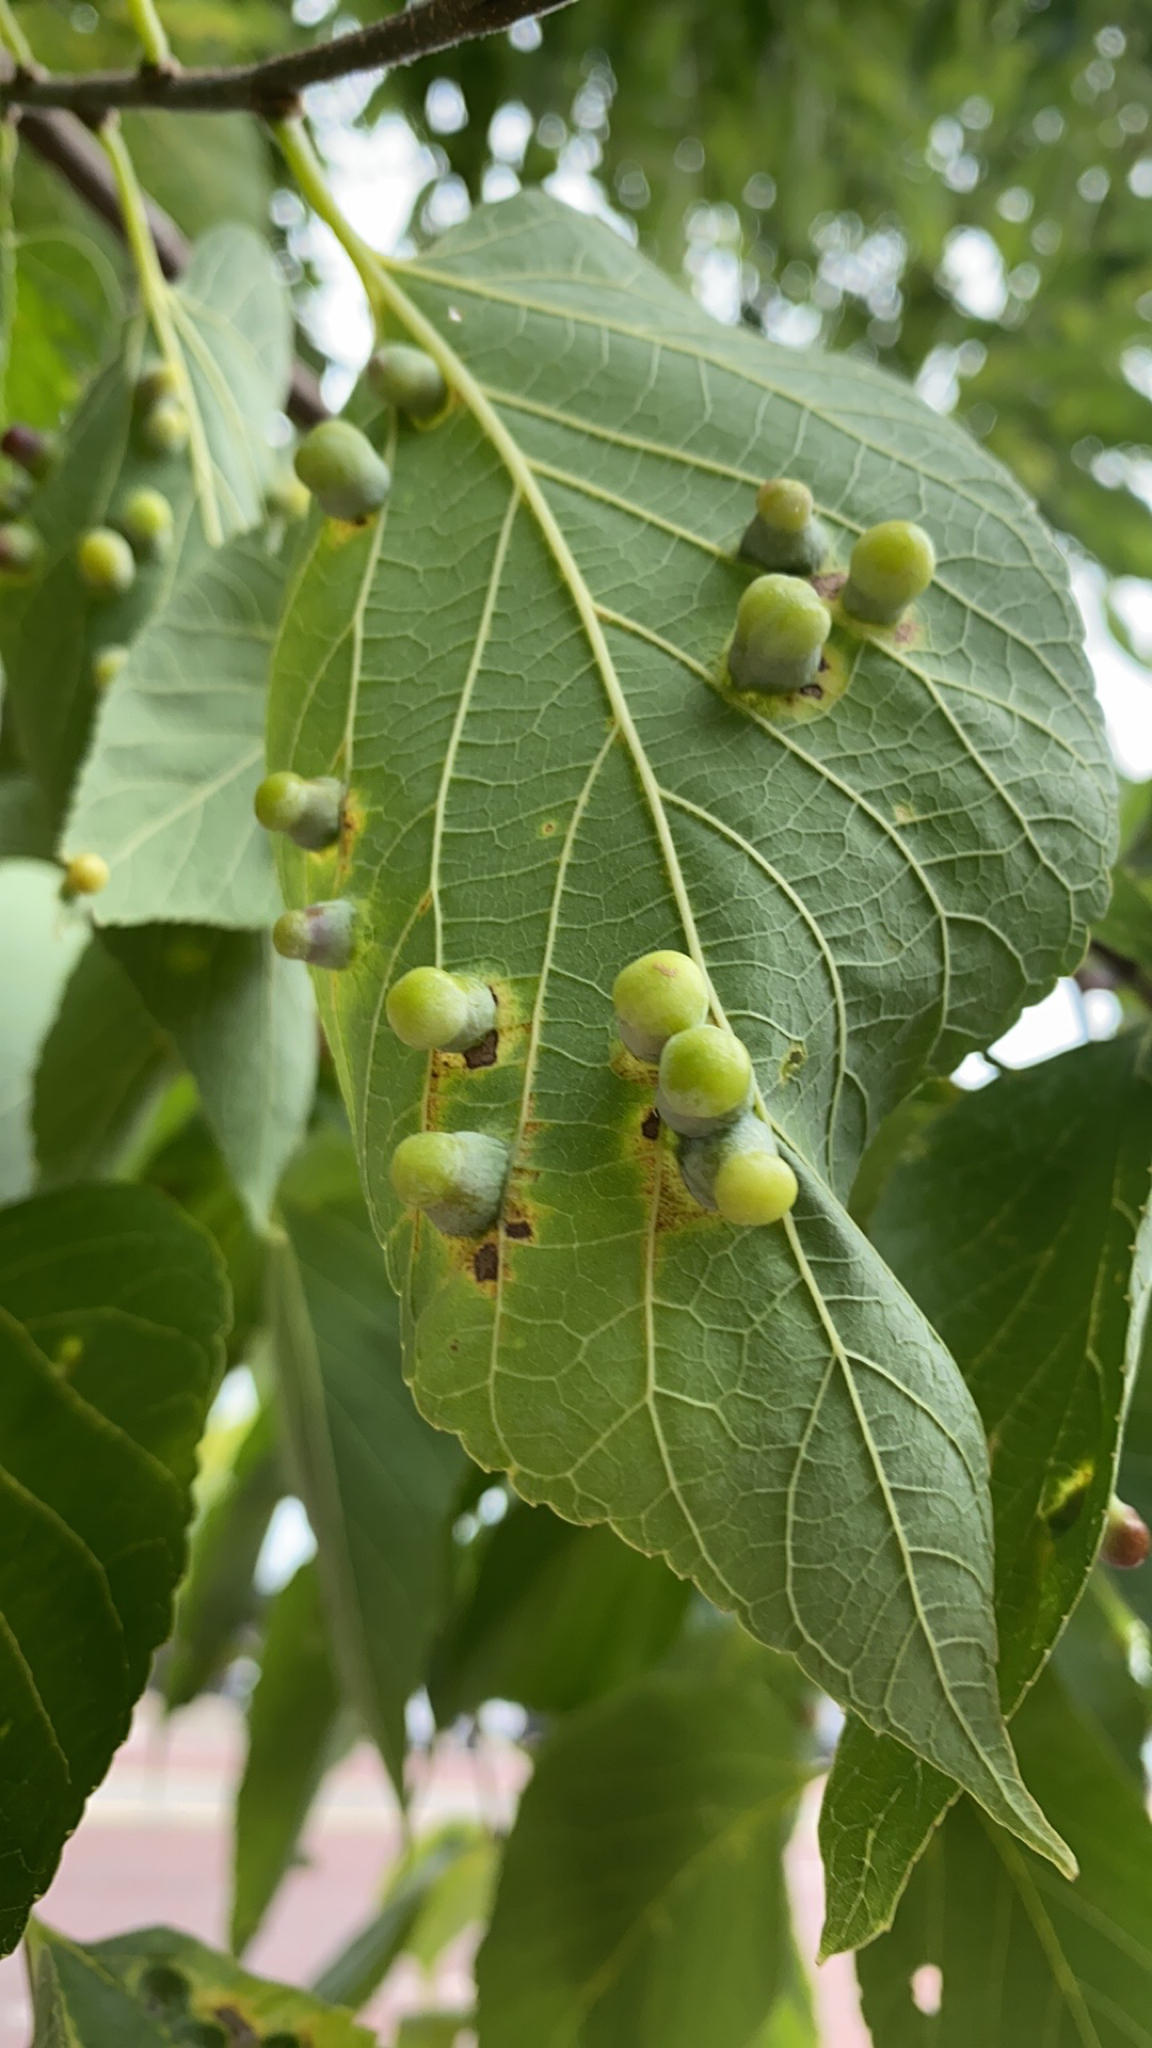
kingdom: Animalia
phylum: Arthropoda
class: Insecta
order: Hemiptera
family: Aphalaridae
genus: Pachypsylla
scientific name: Pachypsylla celtidismamma
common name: Hackberry nipplegall psyllid
